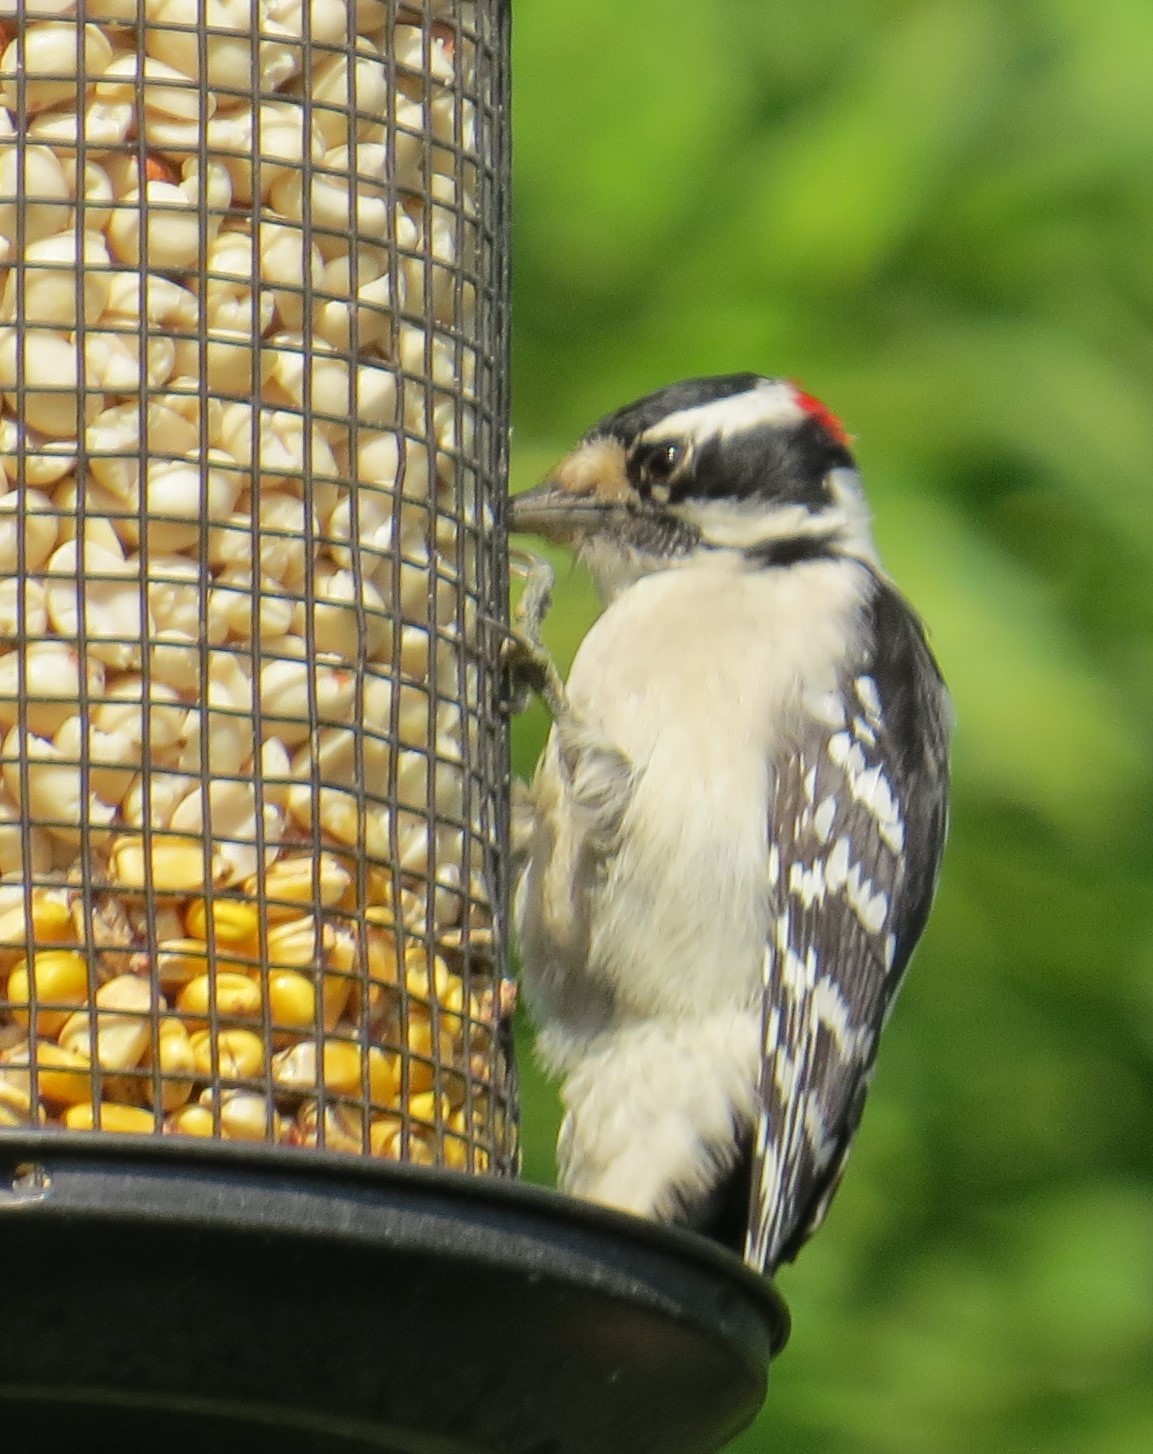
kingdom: Animalia
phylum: Chordata
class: Aves
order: Piciformes
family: Picidae
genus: Dryobates
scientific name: Dryobates pubescens
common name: Downy woodpecker
